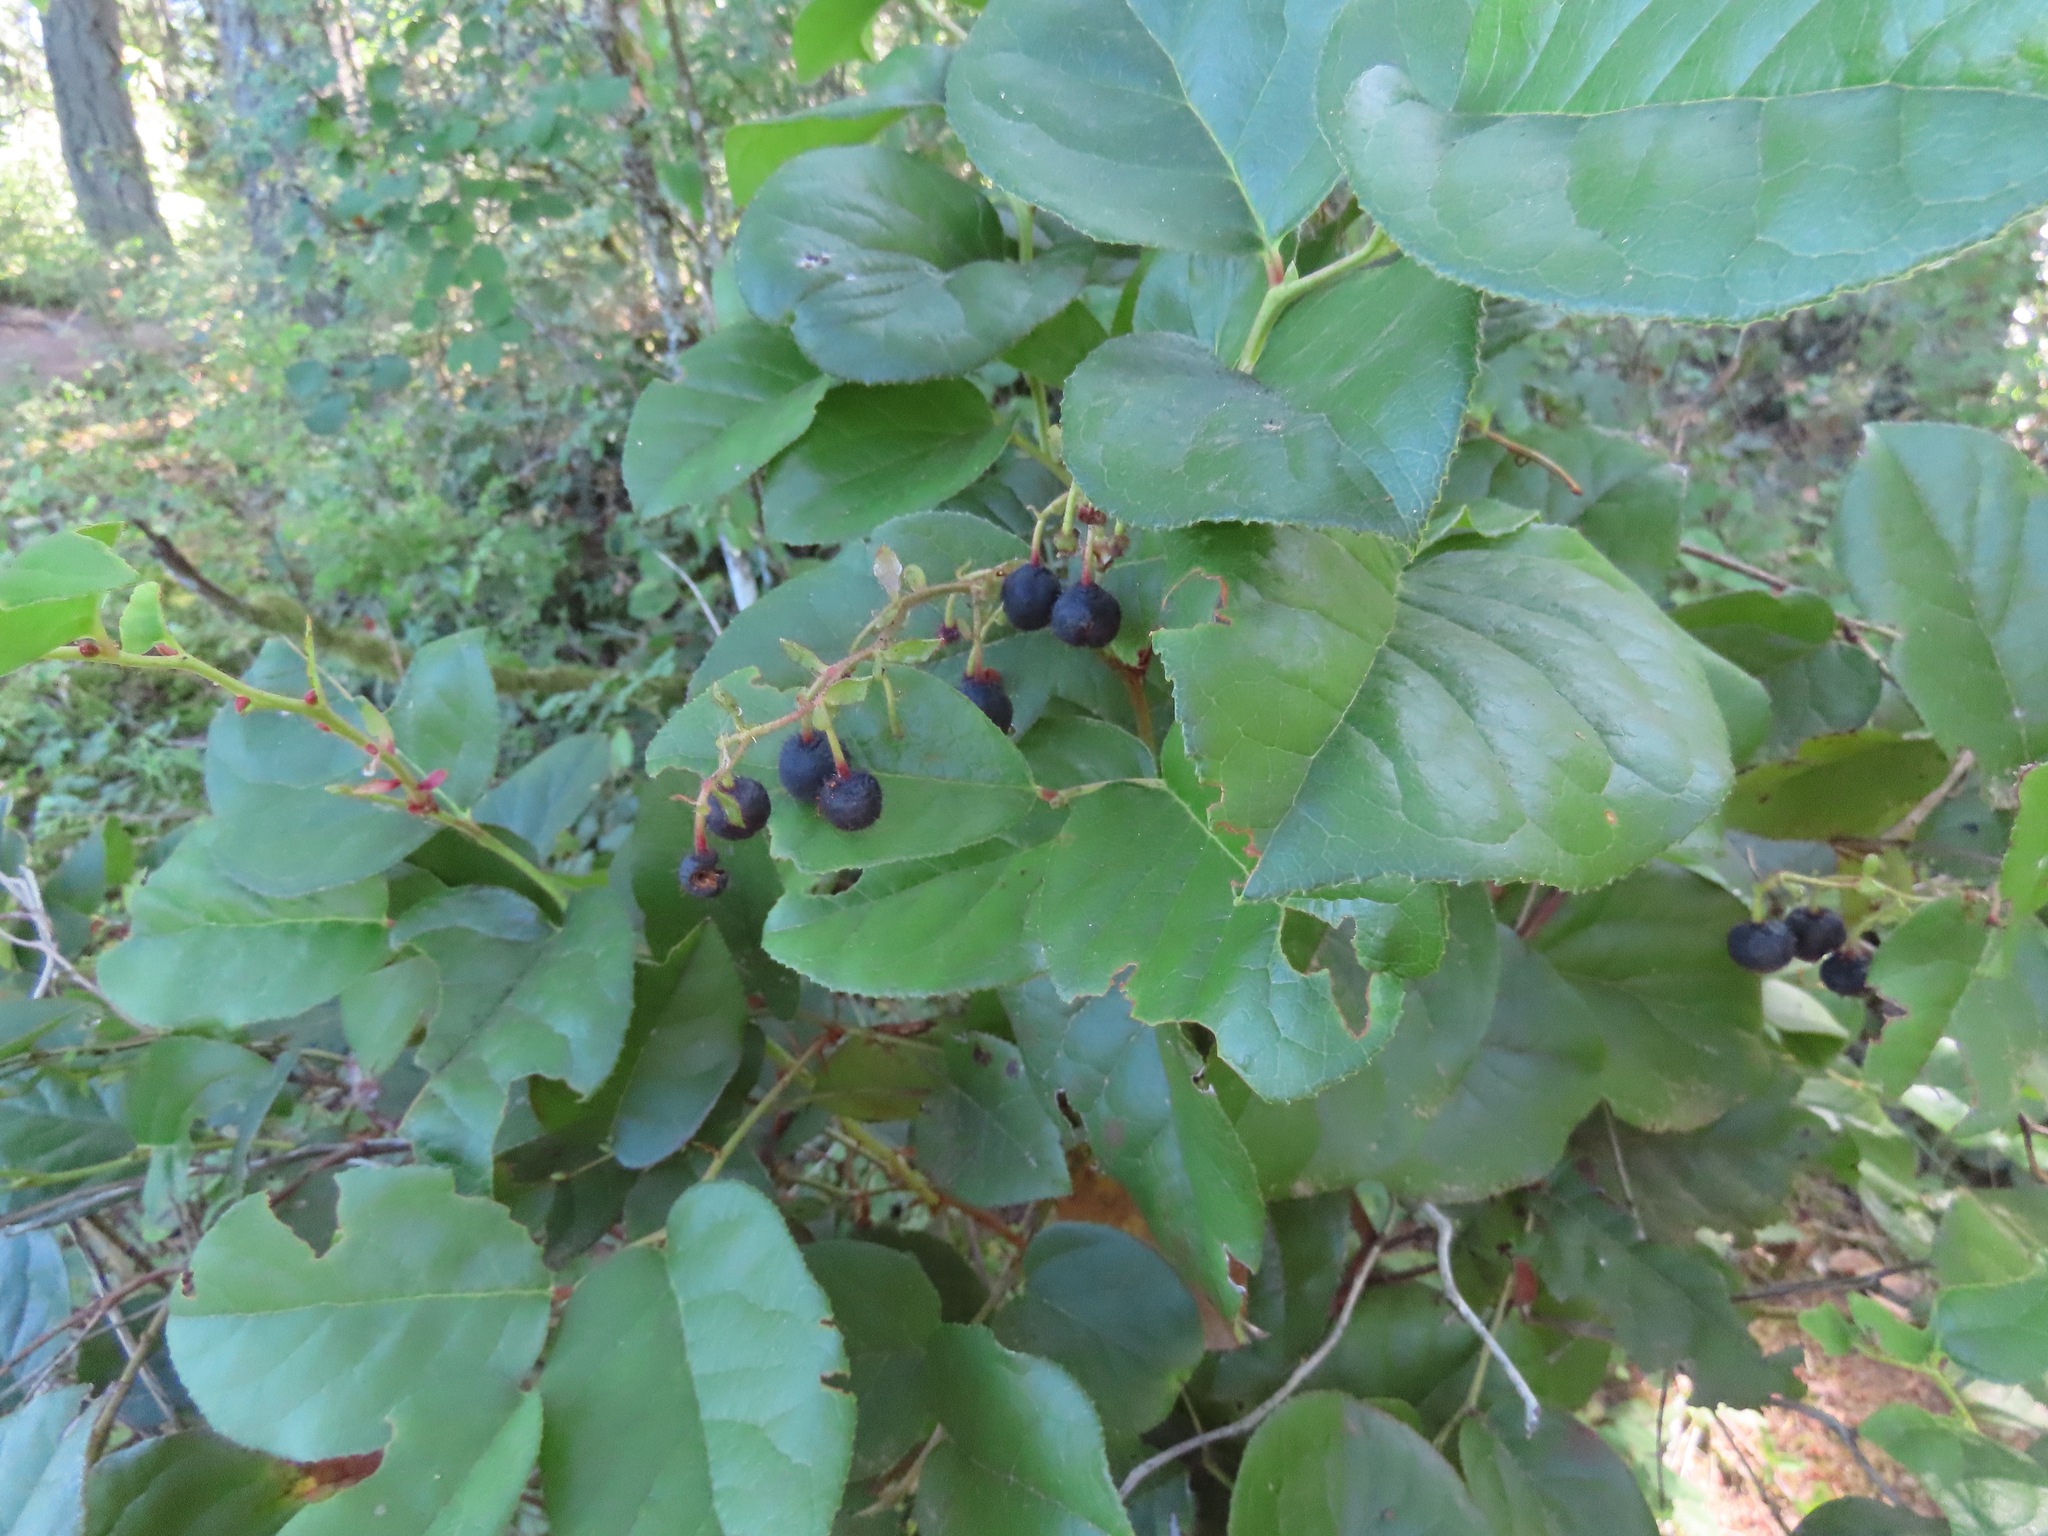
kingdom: Plantae
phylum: Tracheophyta
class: Magnoliopsida
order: Ericales
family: Ericaceae
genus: Gaultheria
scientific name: Gaultheria shallon
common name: Shallon
